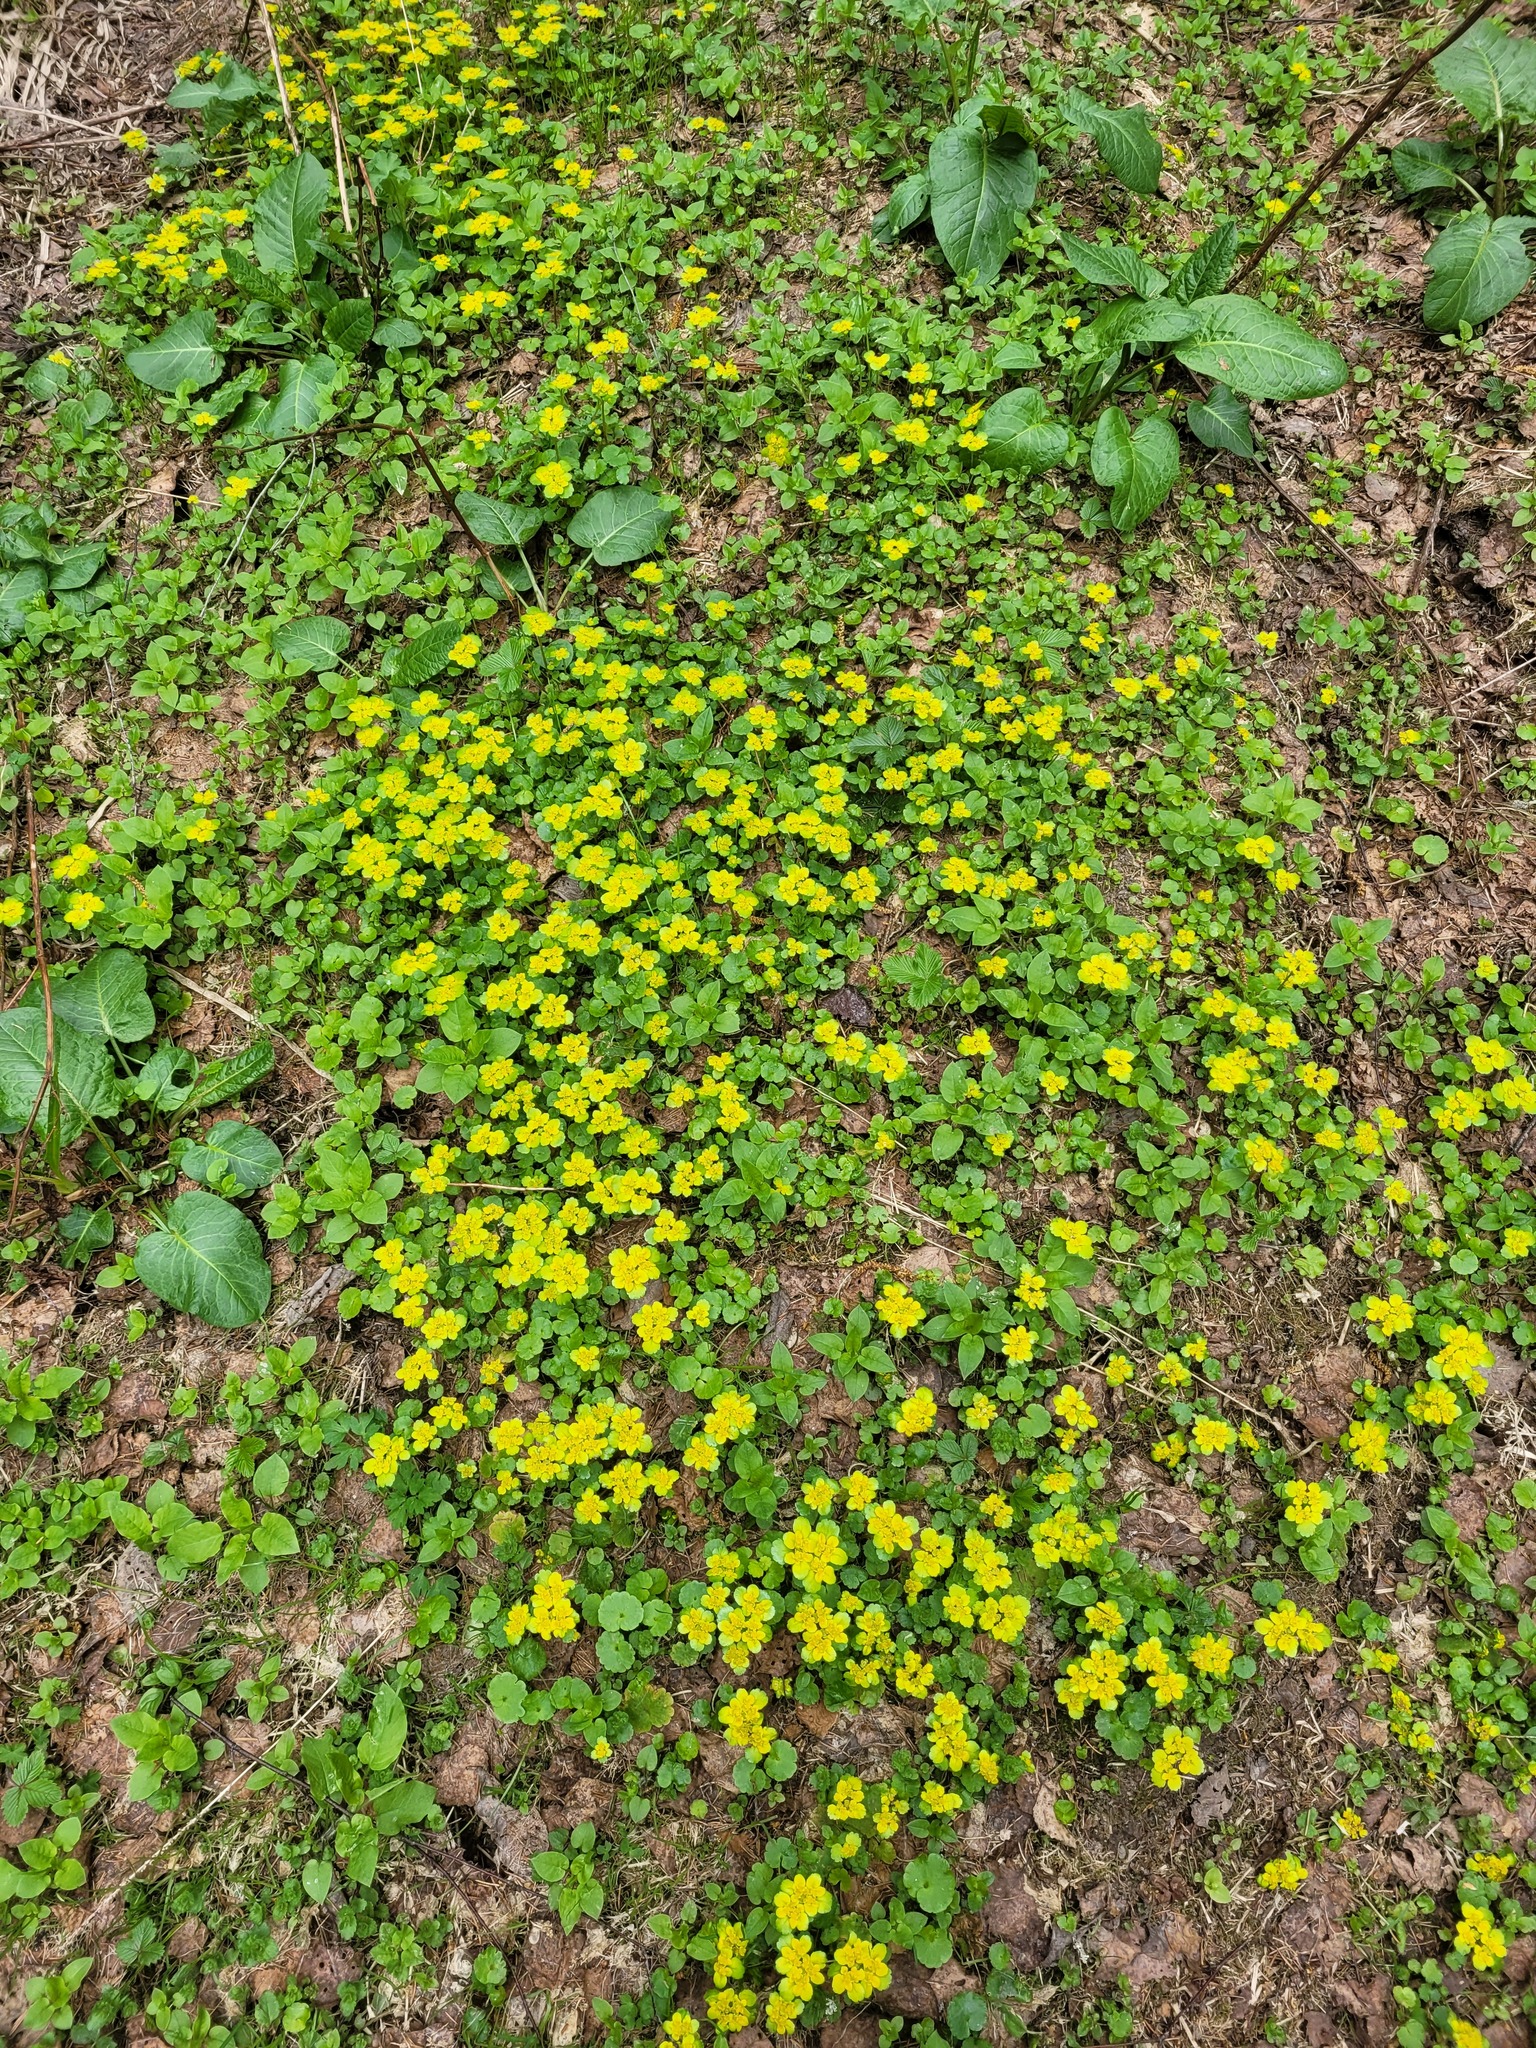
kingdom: Plantae
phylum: Tracheophyta
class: Magnoliopsida
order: Saxifragales
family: Saxifragaceae
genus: Chrysosplenium
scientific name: Chrysosplenium alternifolium
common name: Alternate-leaved golden-saxifrage
